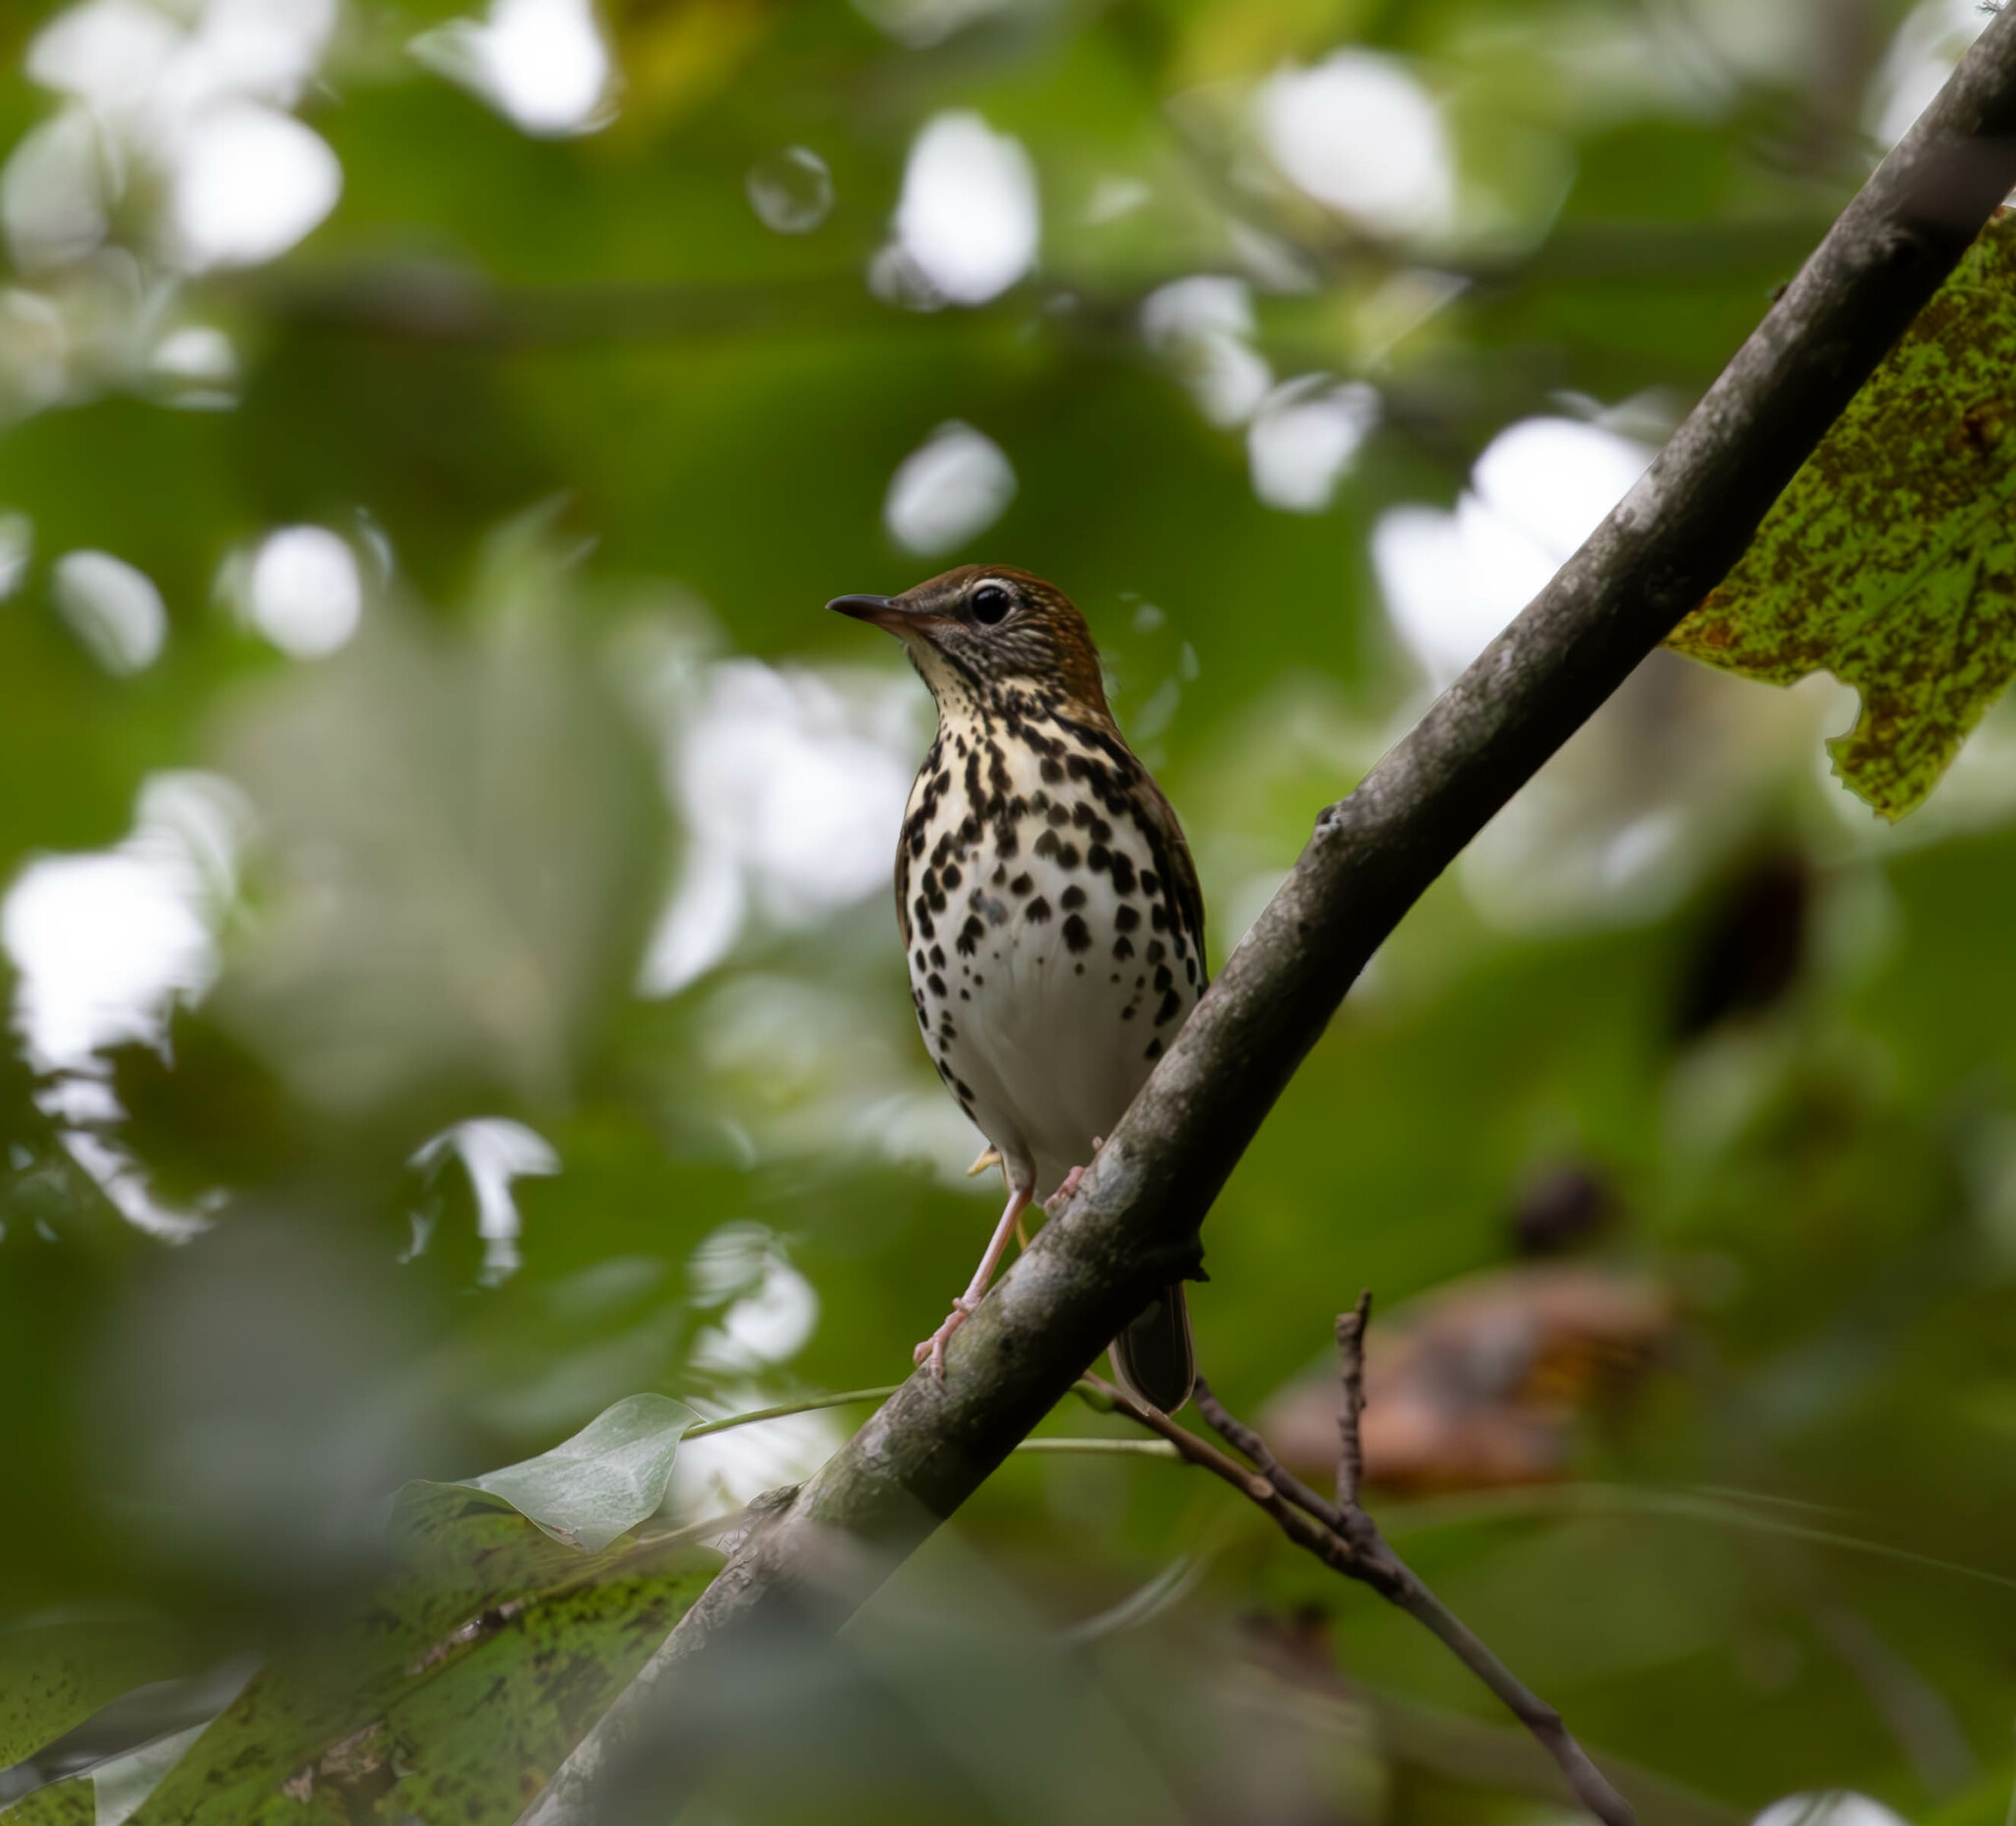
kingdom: Animalia
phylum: Chordata
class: Aves
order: Passeriformes
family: Turdidae
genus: Hylocichla
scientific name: Hylocichla mustelina
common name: Wood thrush
